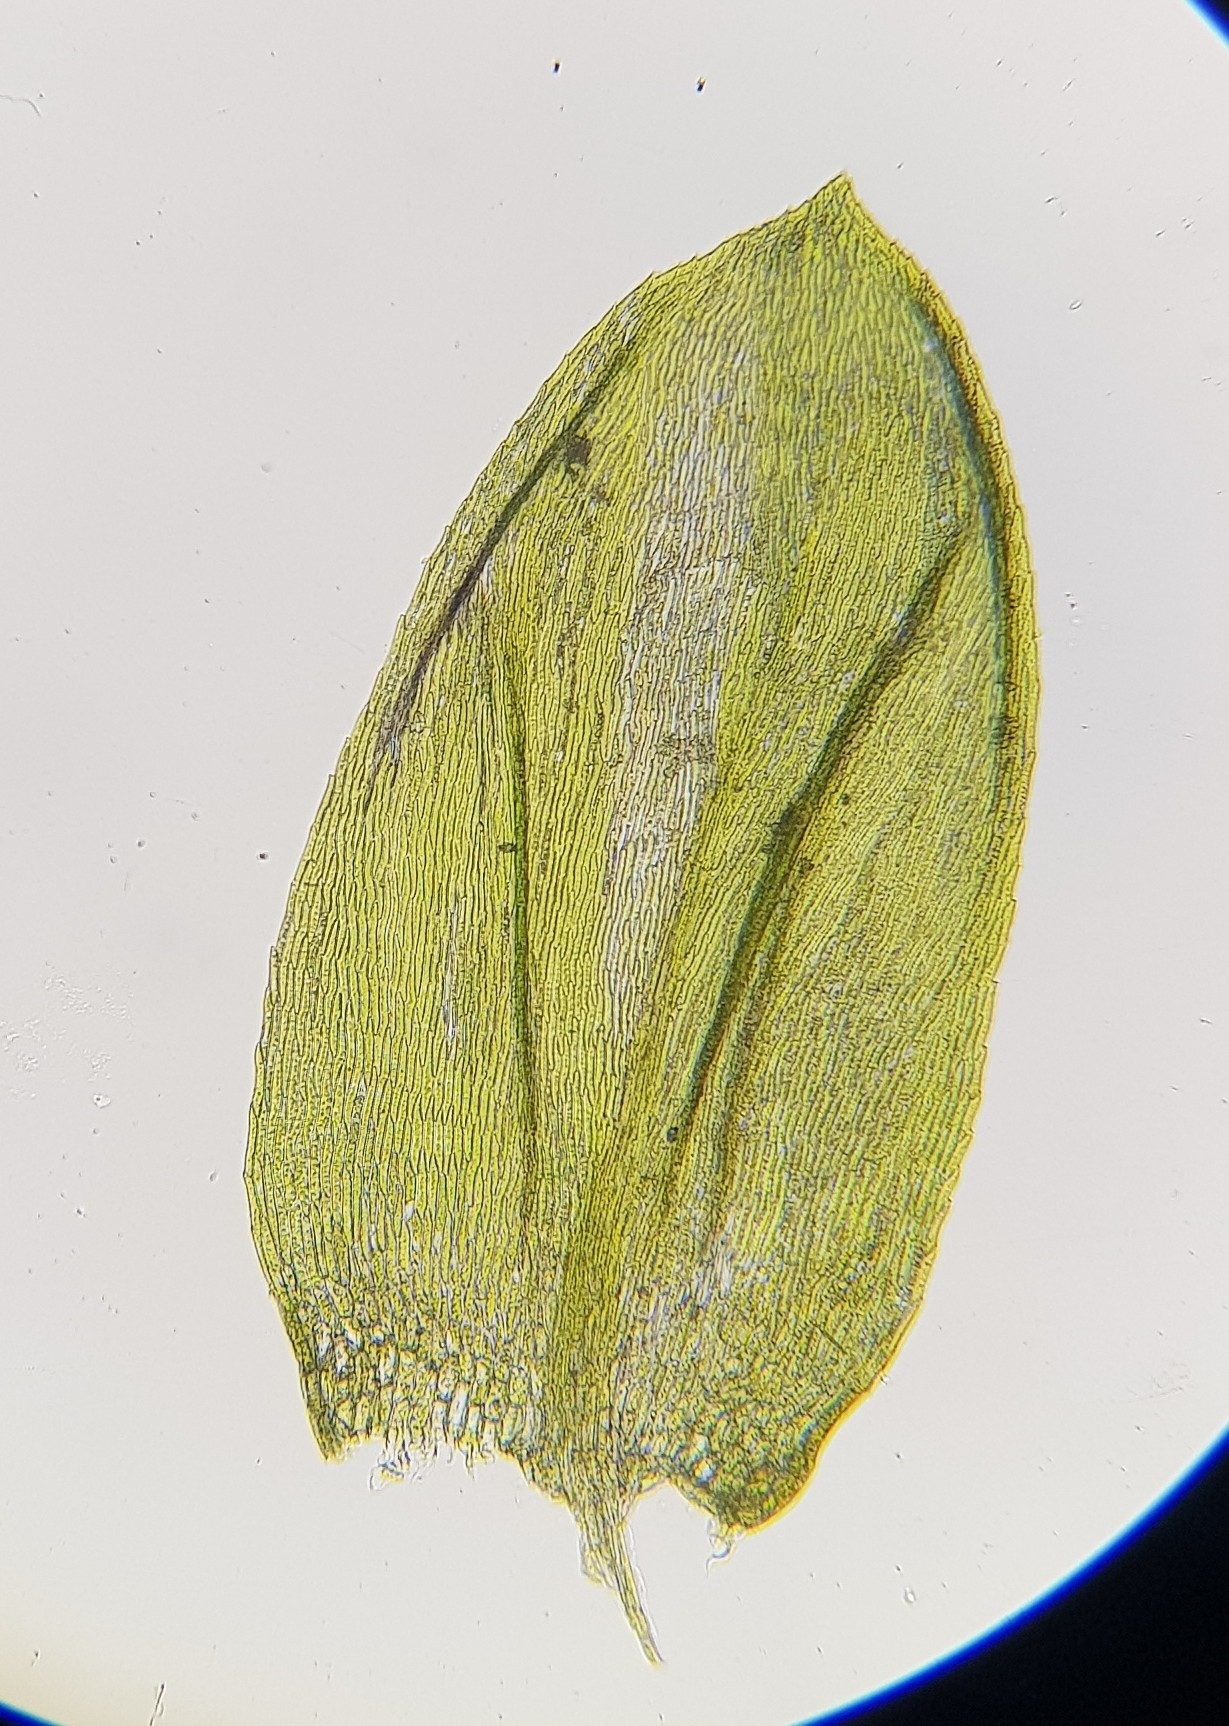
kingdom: Plantae
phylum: Bryophyta
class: Bryopsida
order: Hypnales
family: Brachytheciaceae
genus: Cirriphyllum
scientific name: Cirriphyllum crassinervium
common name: Beech feather-moss
